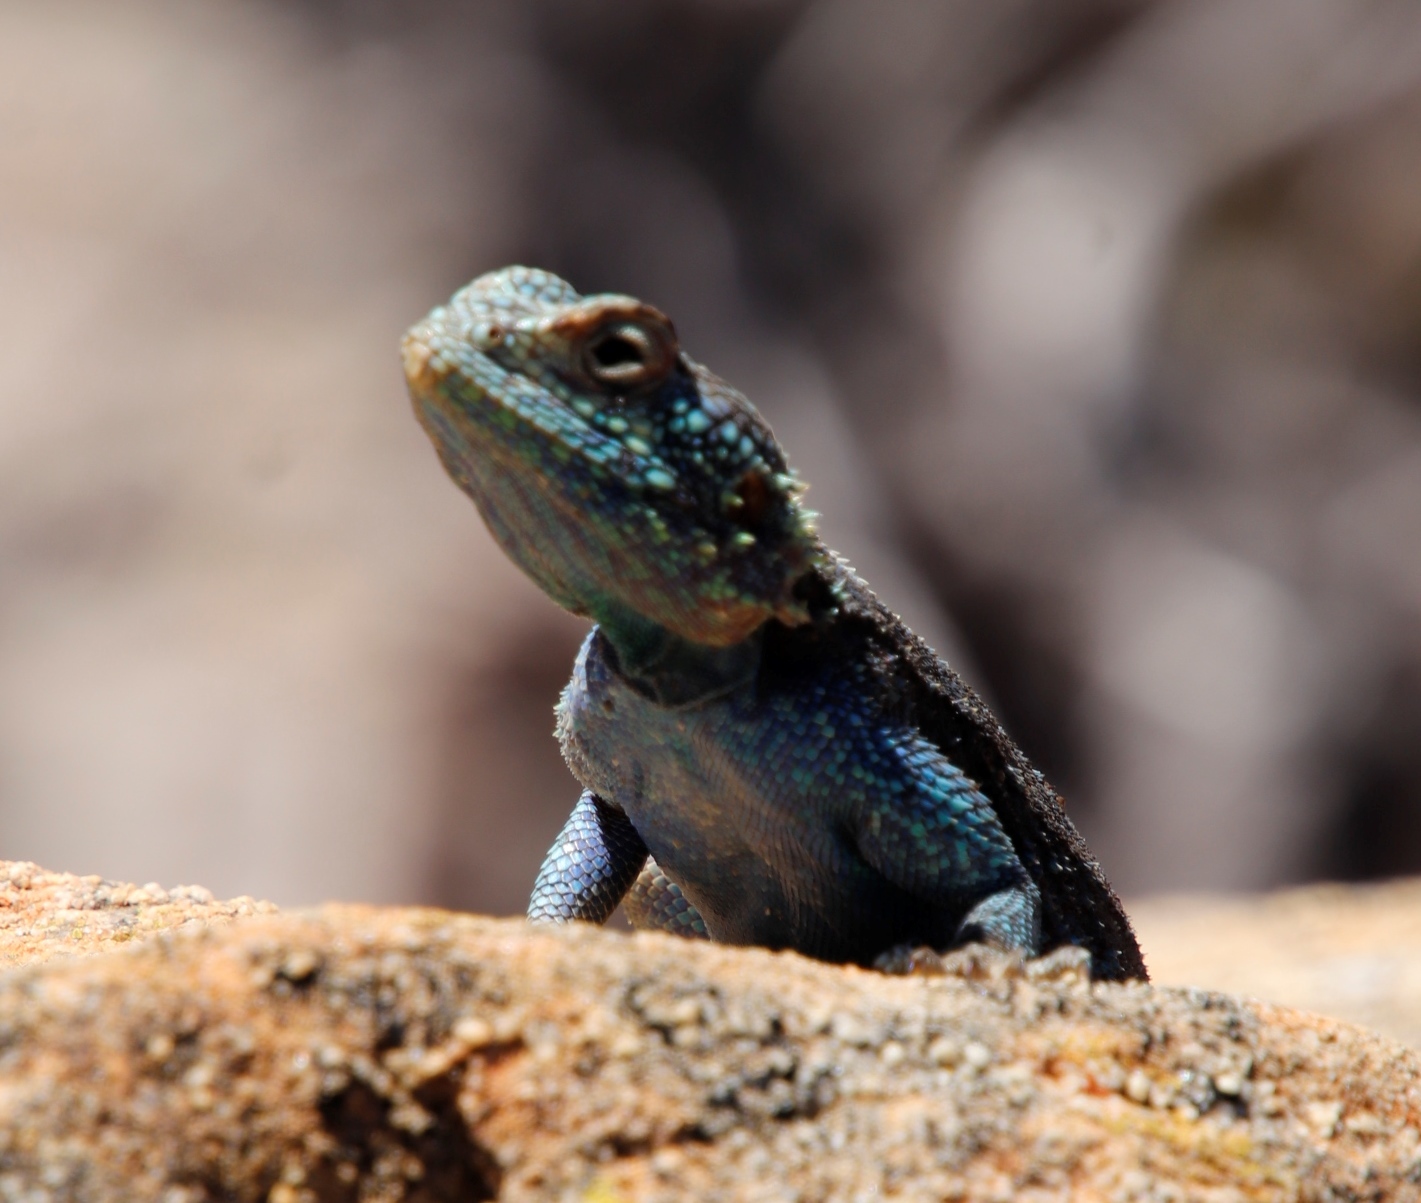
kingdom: Animalia
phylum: Chordata
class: Squamata
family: Agamidae
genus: Agama
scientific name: Agama atra
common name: Southern african rock agama
